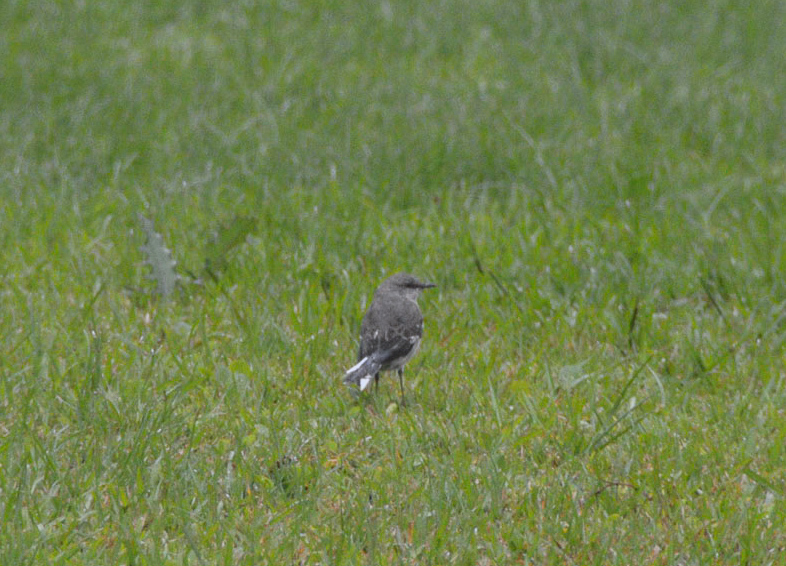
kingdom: Animalia
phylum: Chordata
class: Aves
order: Passeriformes
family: Mimidae
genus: Mimus
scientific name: Mimus polyglottos
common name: Northern mockingbird
